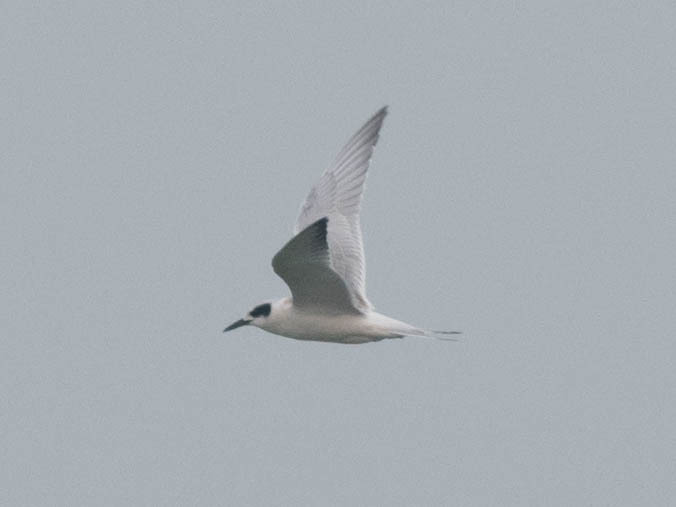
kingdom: Animalia
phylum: Chordata
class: Aves
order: Charadriiformes
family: Laridae
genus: Sterna
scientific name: Sterna hirundo
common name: Common tern
